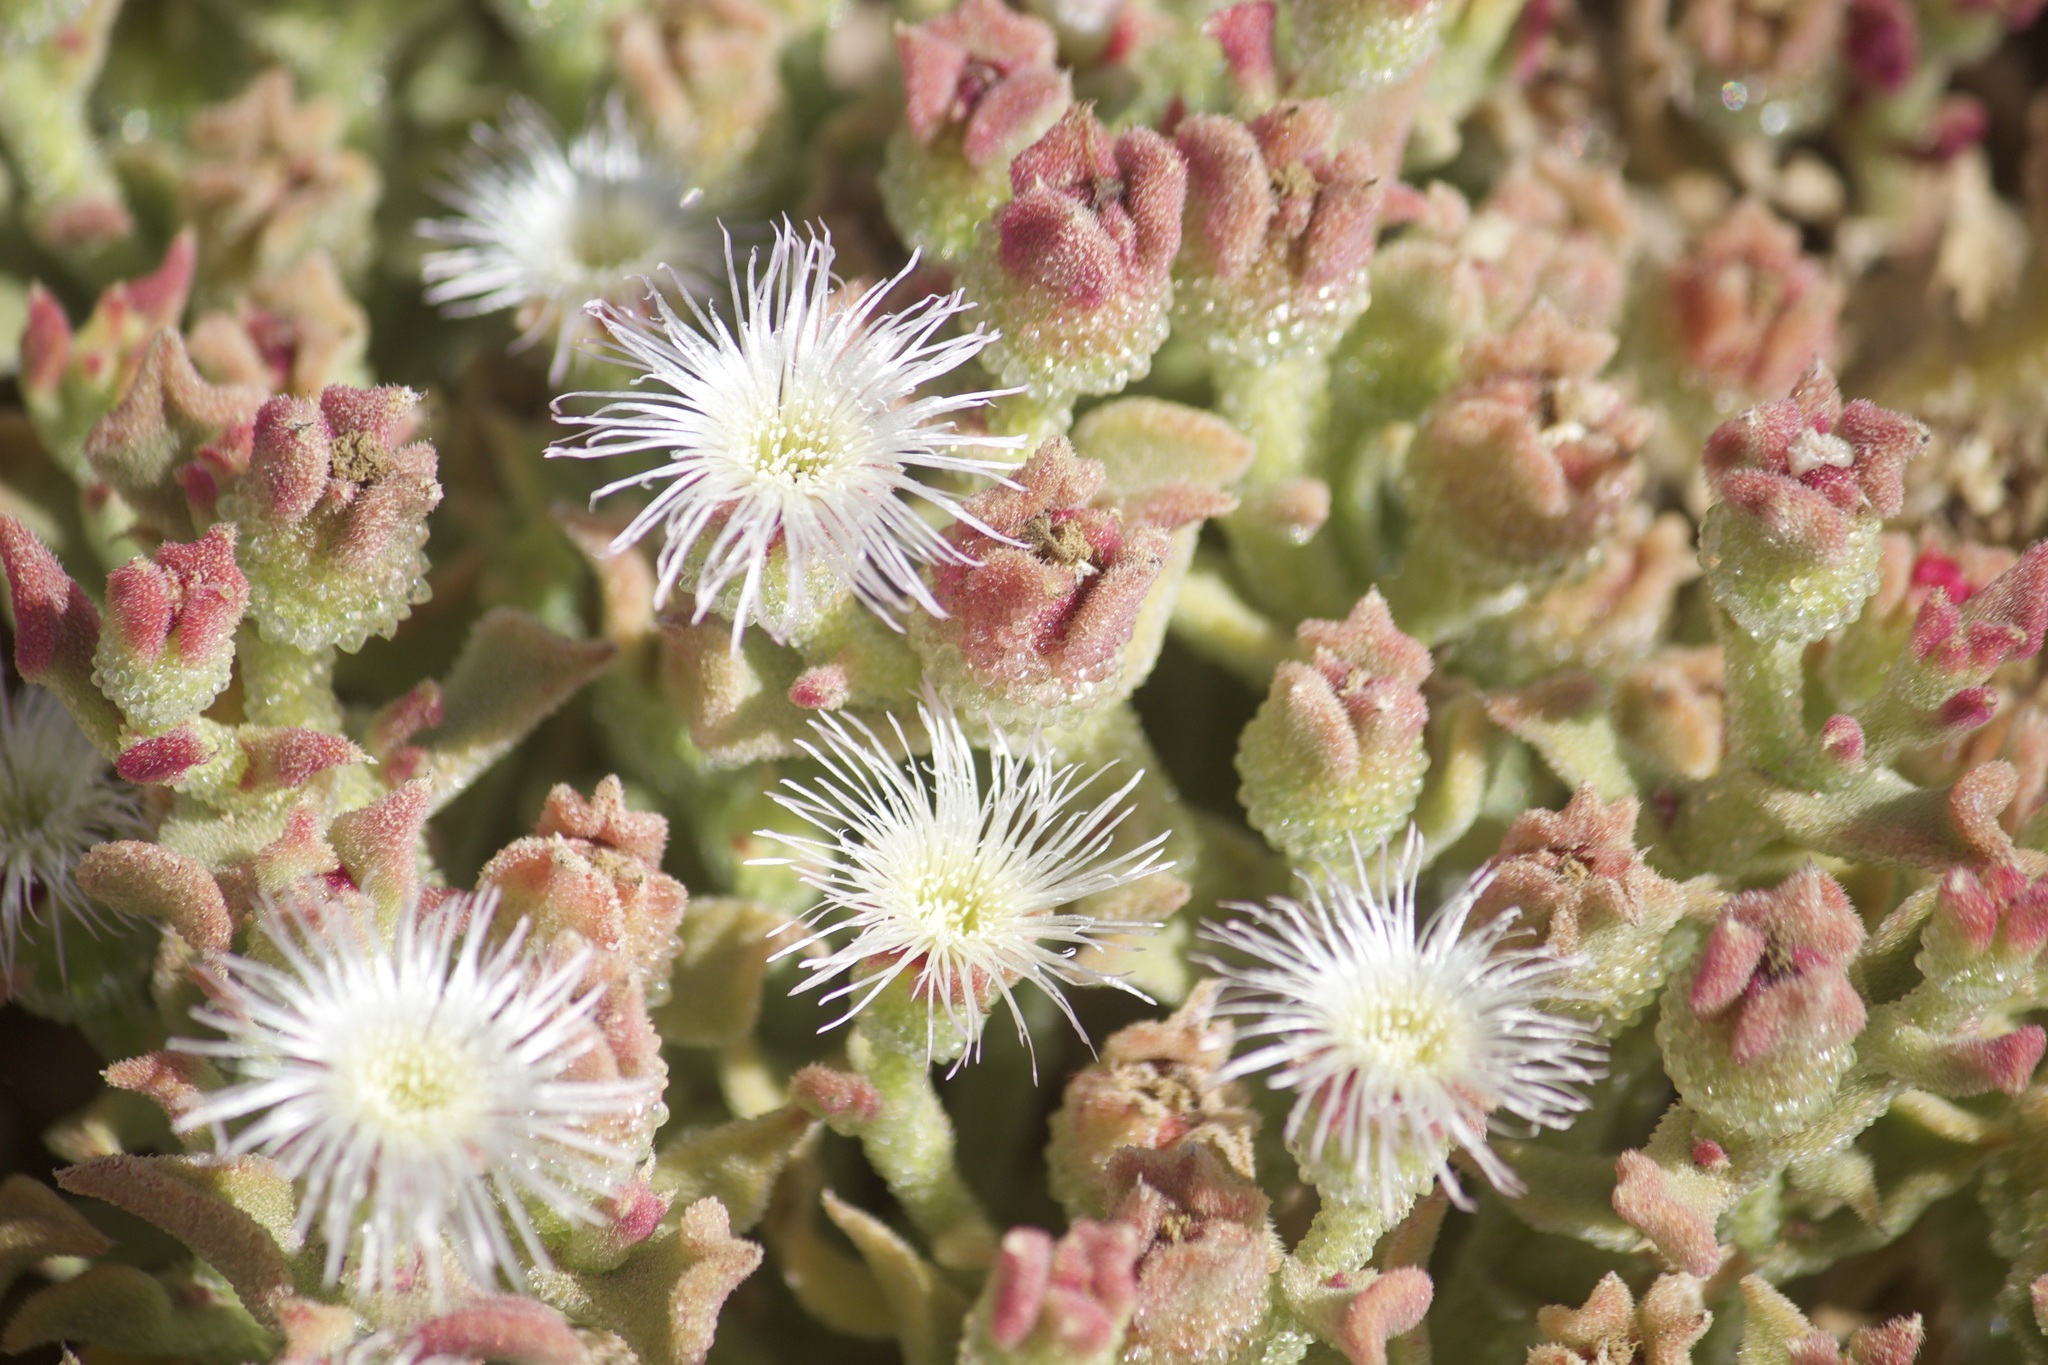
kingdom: Plantae
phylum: Tracheophyta
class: Magnoliopsida
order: Caryophyllales
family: Aizoaceae
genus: Mesembryanthemum
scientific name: Mesembryanthemum crystallinum
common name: Common iceplant
